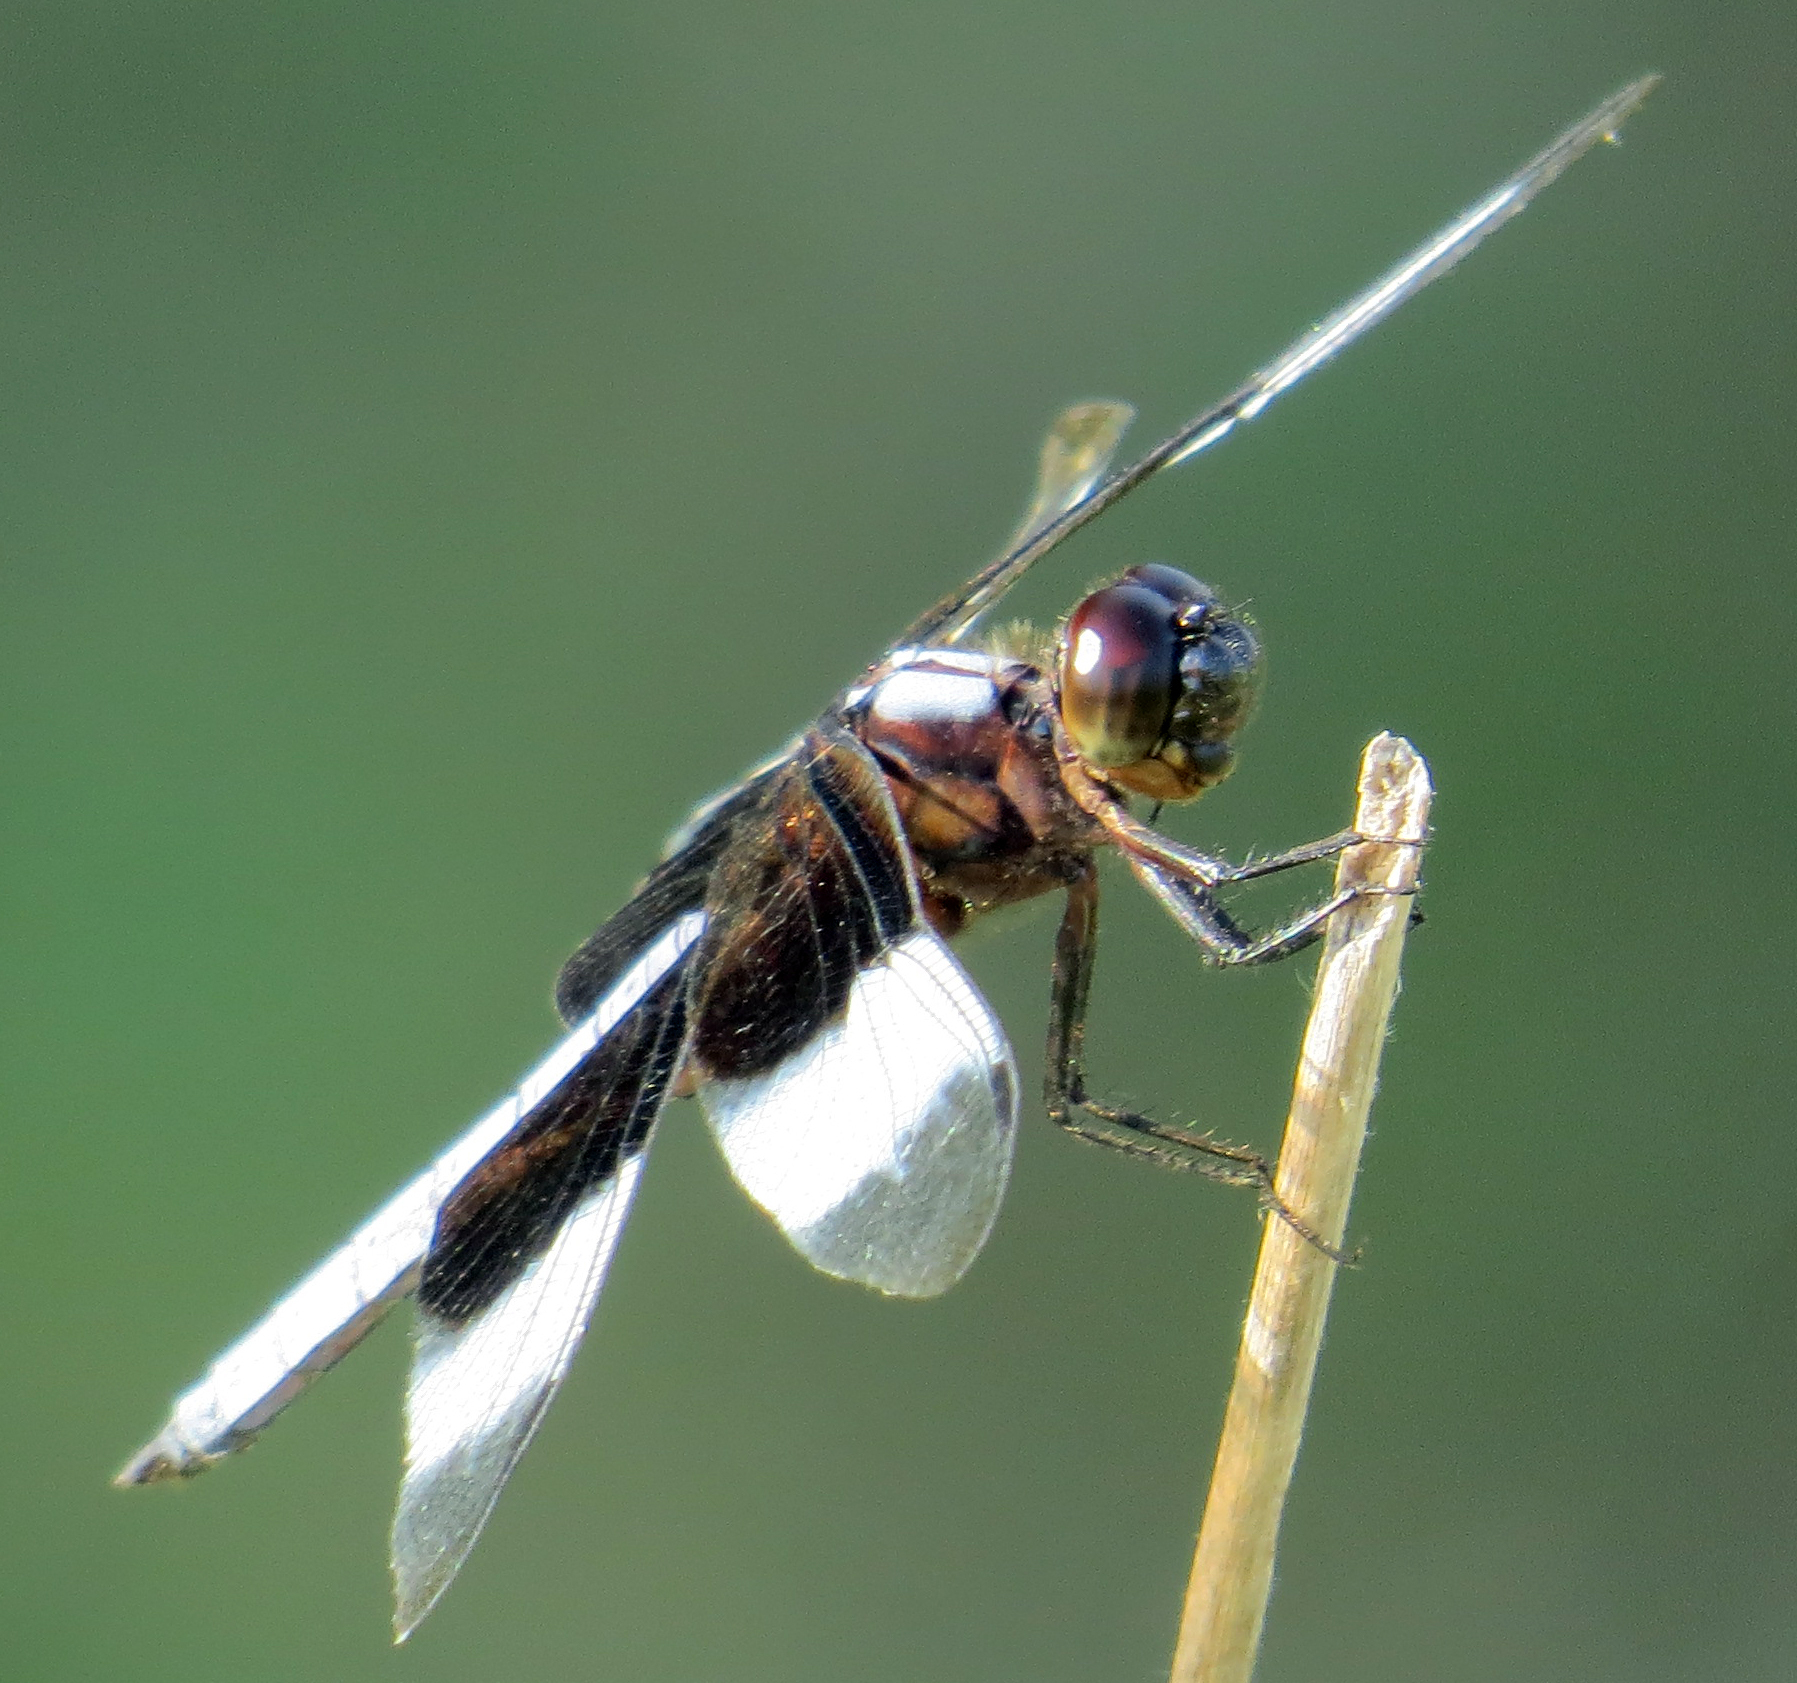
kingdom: Animalia
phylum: Arthropoda
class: Insecta
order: Odonata
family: Libellulidae
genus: Libellula
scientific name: Libellula luctuosa
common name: Widow skimmer
